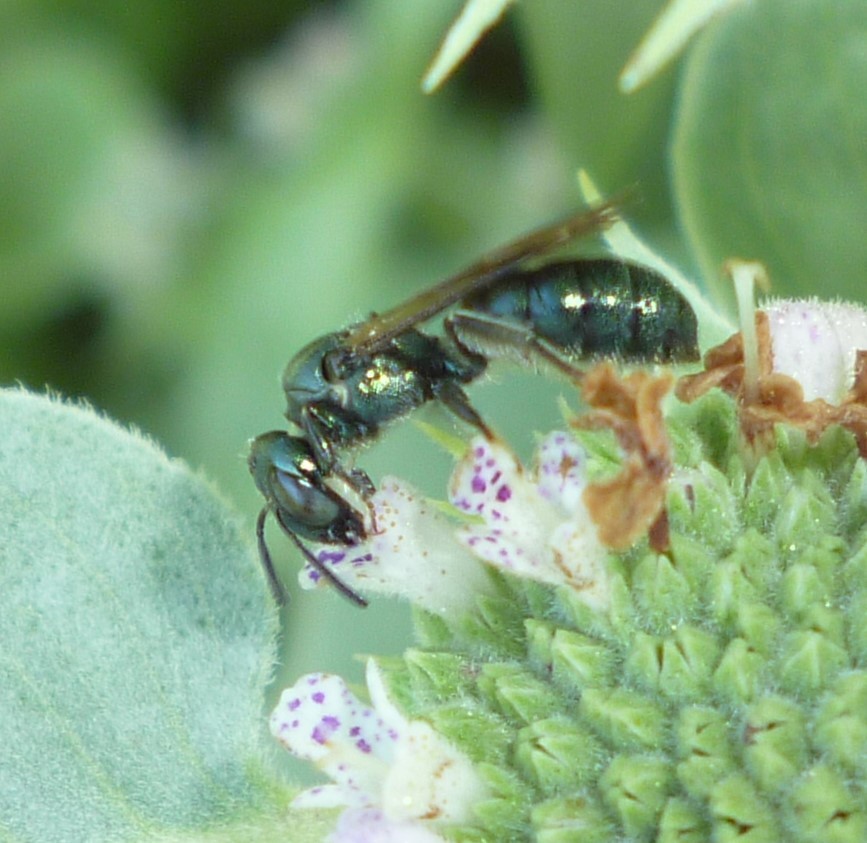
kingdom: Animalia
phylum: Arthropoda
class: Insecta
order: Hymenoptera
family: Apidae
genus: Zadontomerus
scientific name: Zadontomerus
